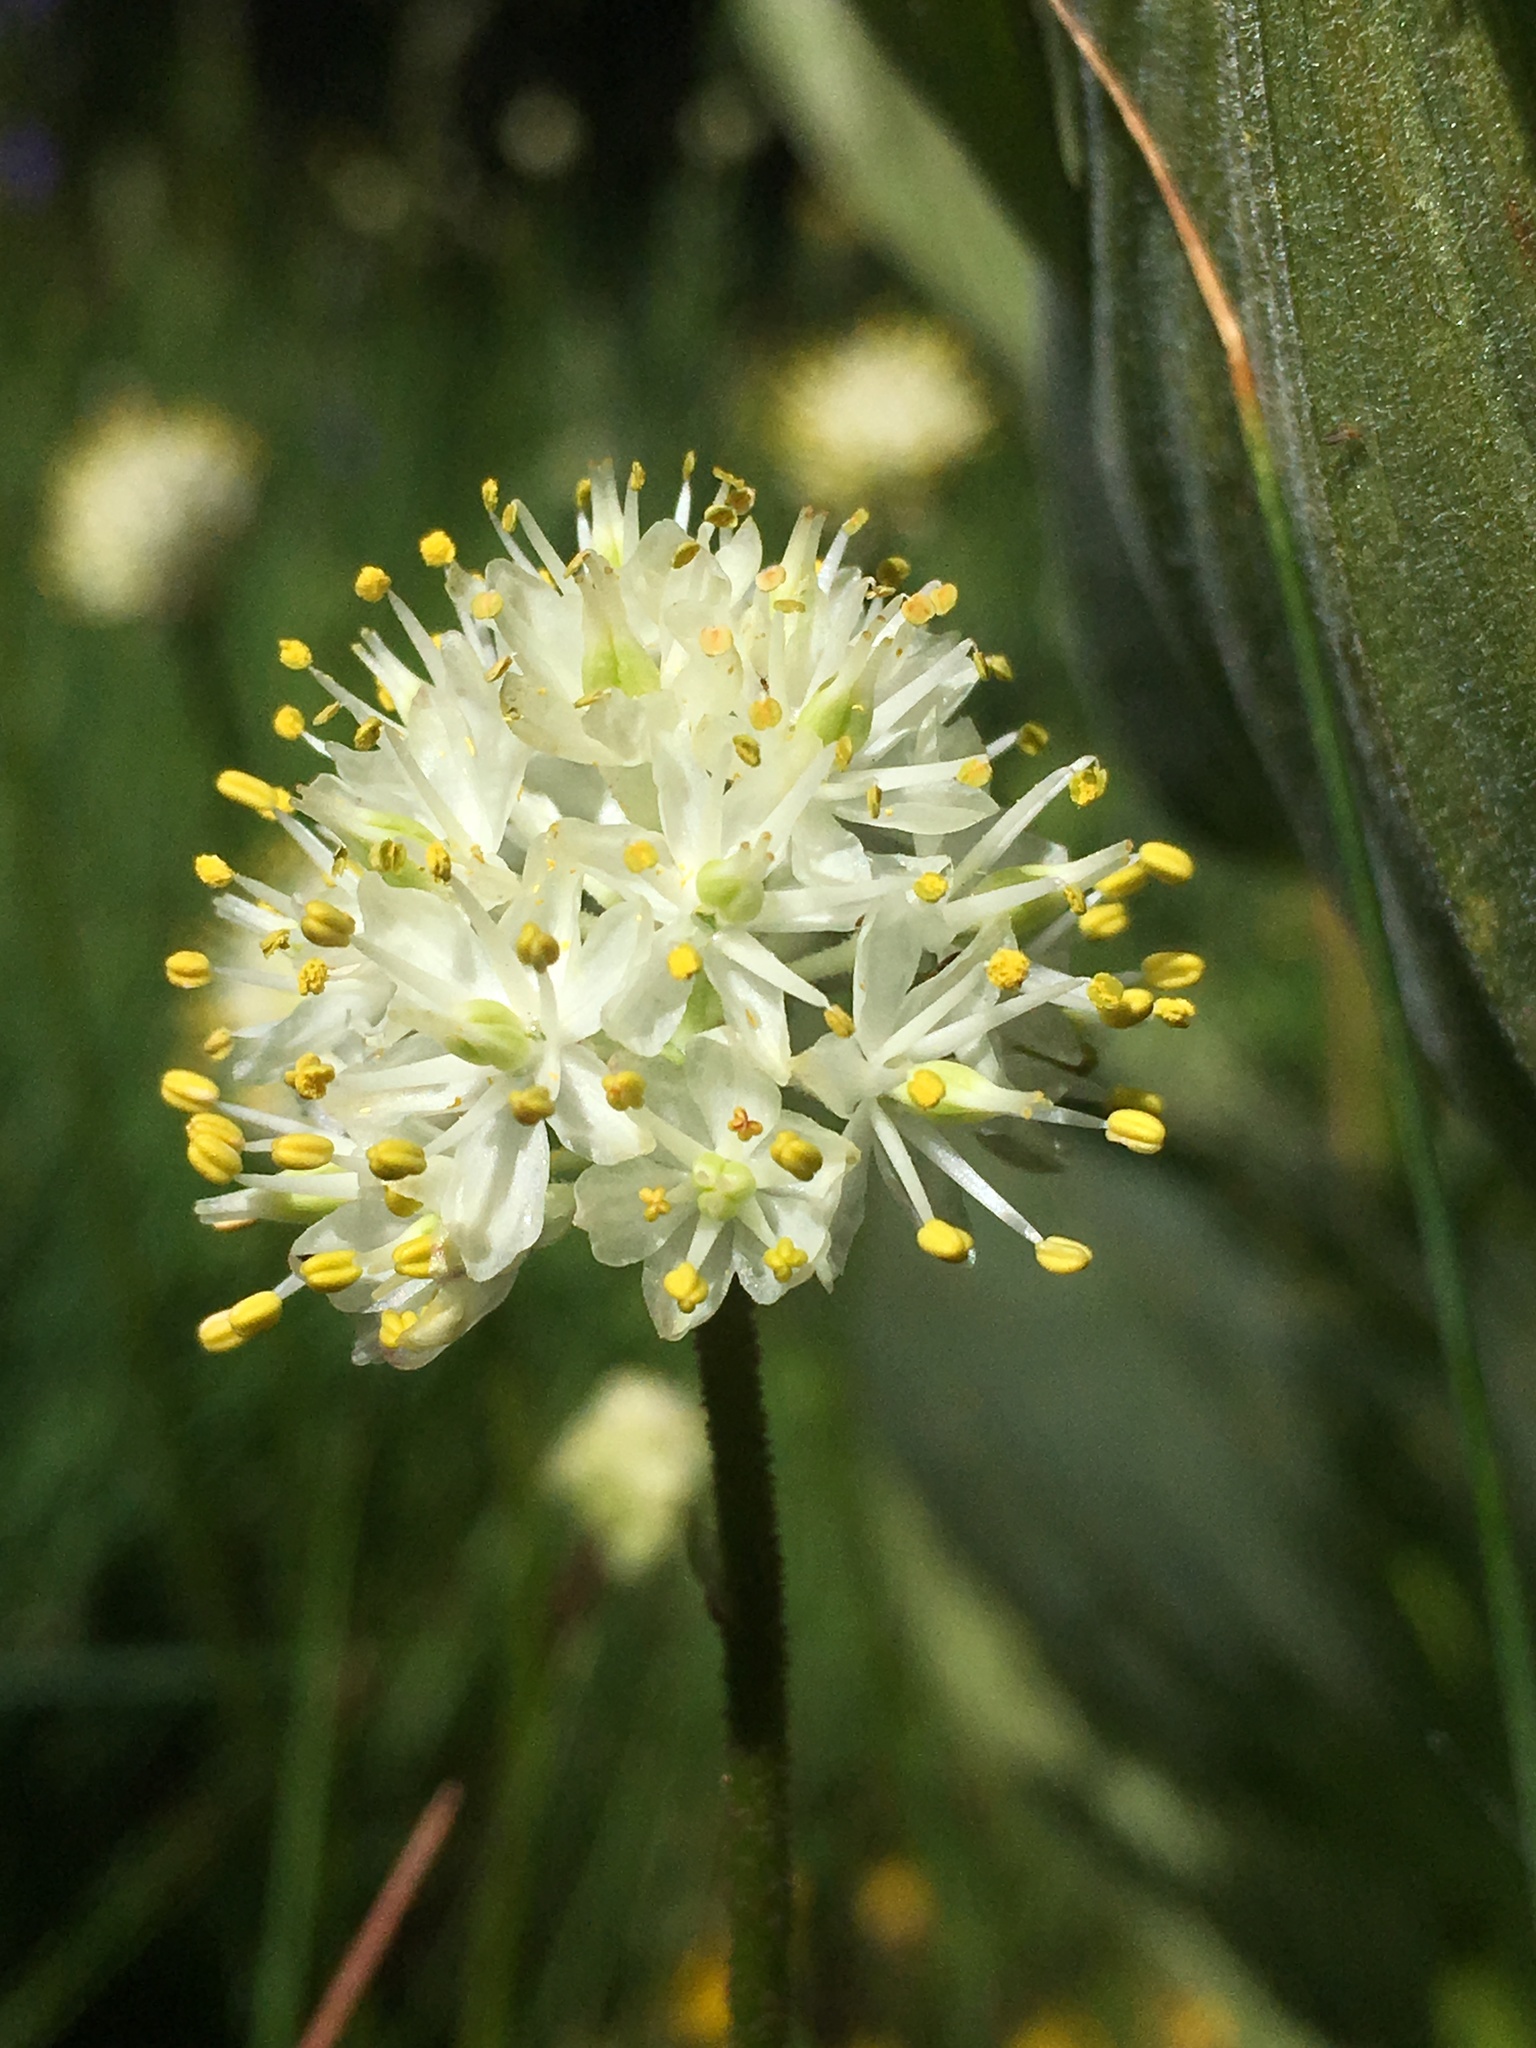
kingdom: Plantae
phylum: Tracheophyta
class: Liliopsida
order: Alismatales
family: Tofieldiaceae
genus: Triantha
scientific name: Triantha occidentalis
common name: Western false asphodel
